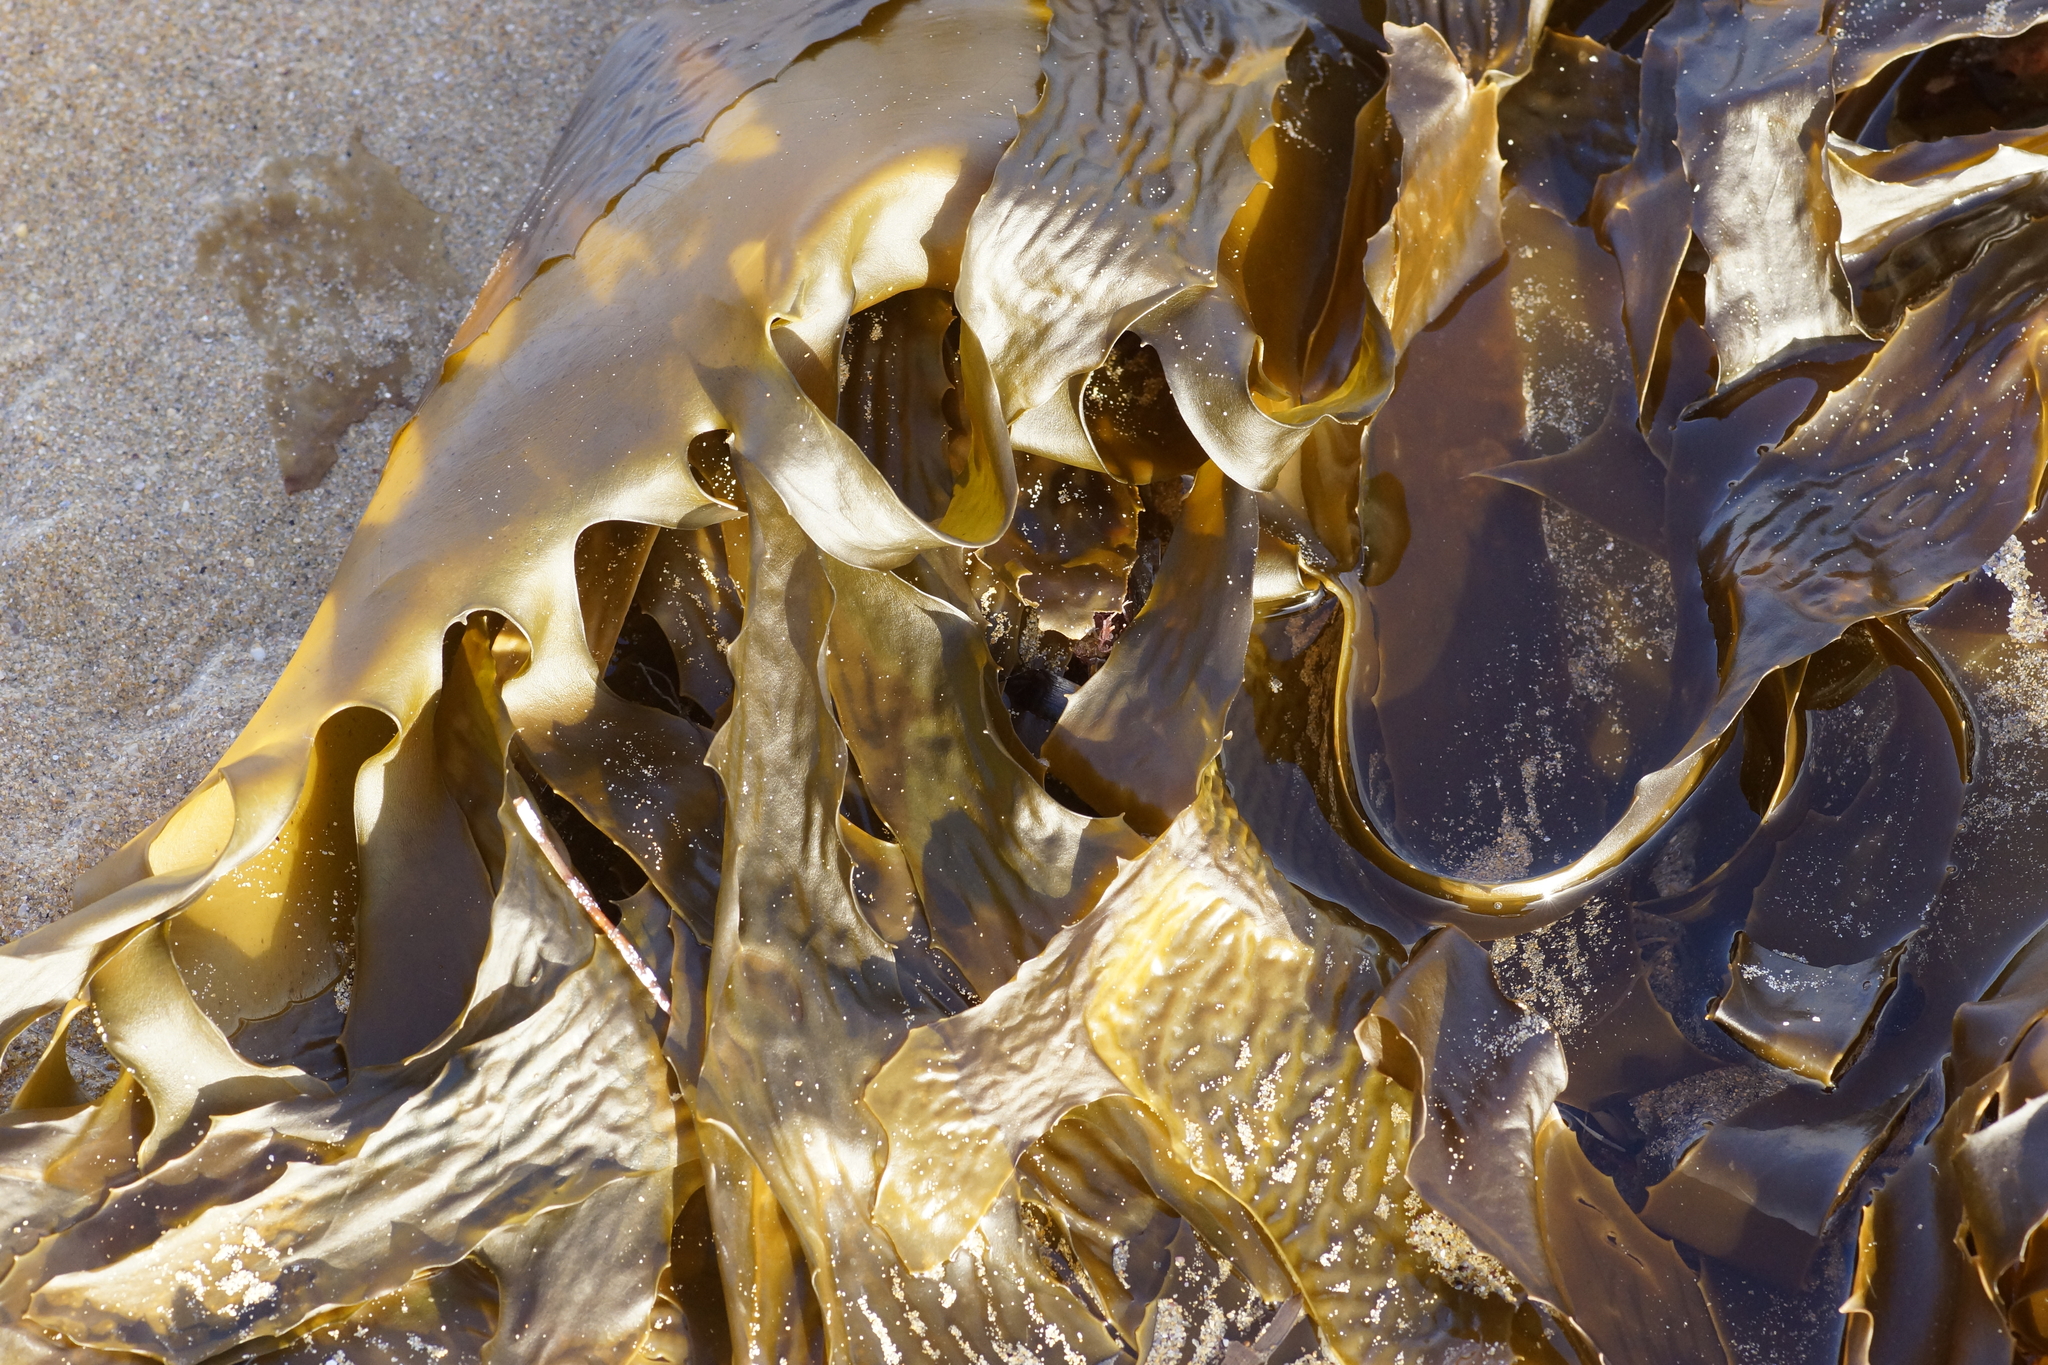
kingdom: Chromista
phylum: Ochrophyta
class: Phaeophyceae
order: Laminariales
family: Lessoniaceae
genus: Ecklonia
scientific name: Ecklonia radiata
